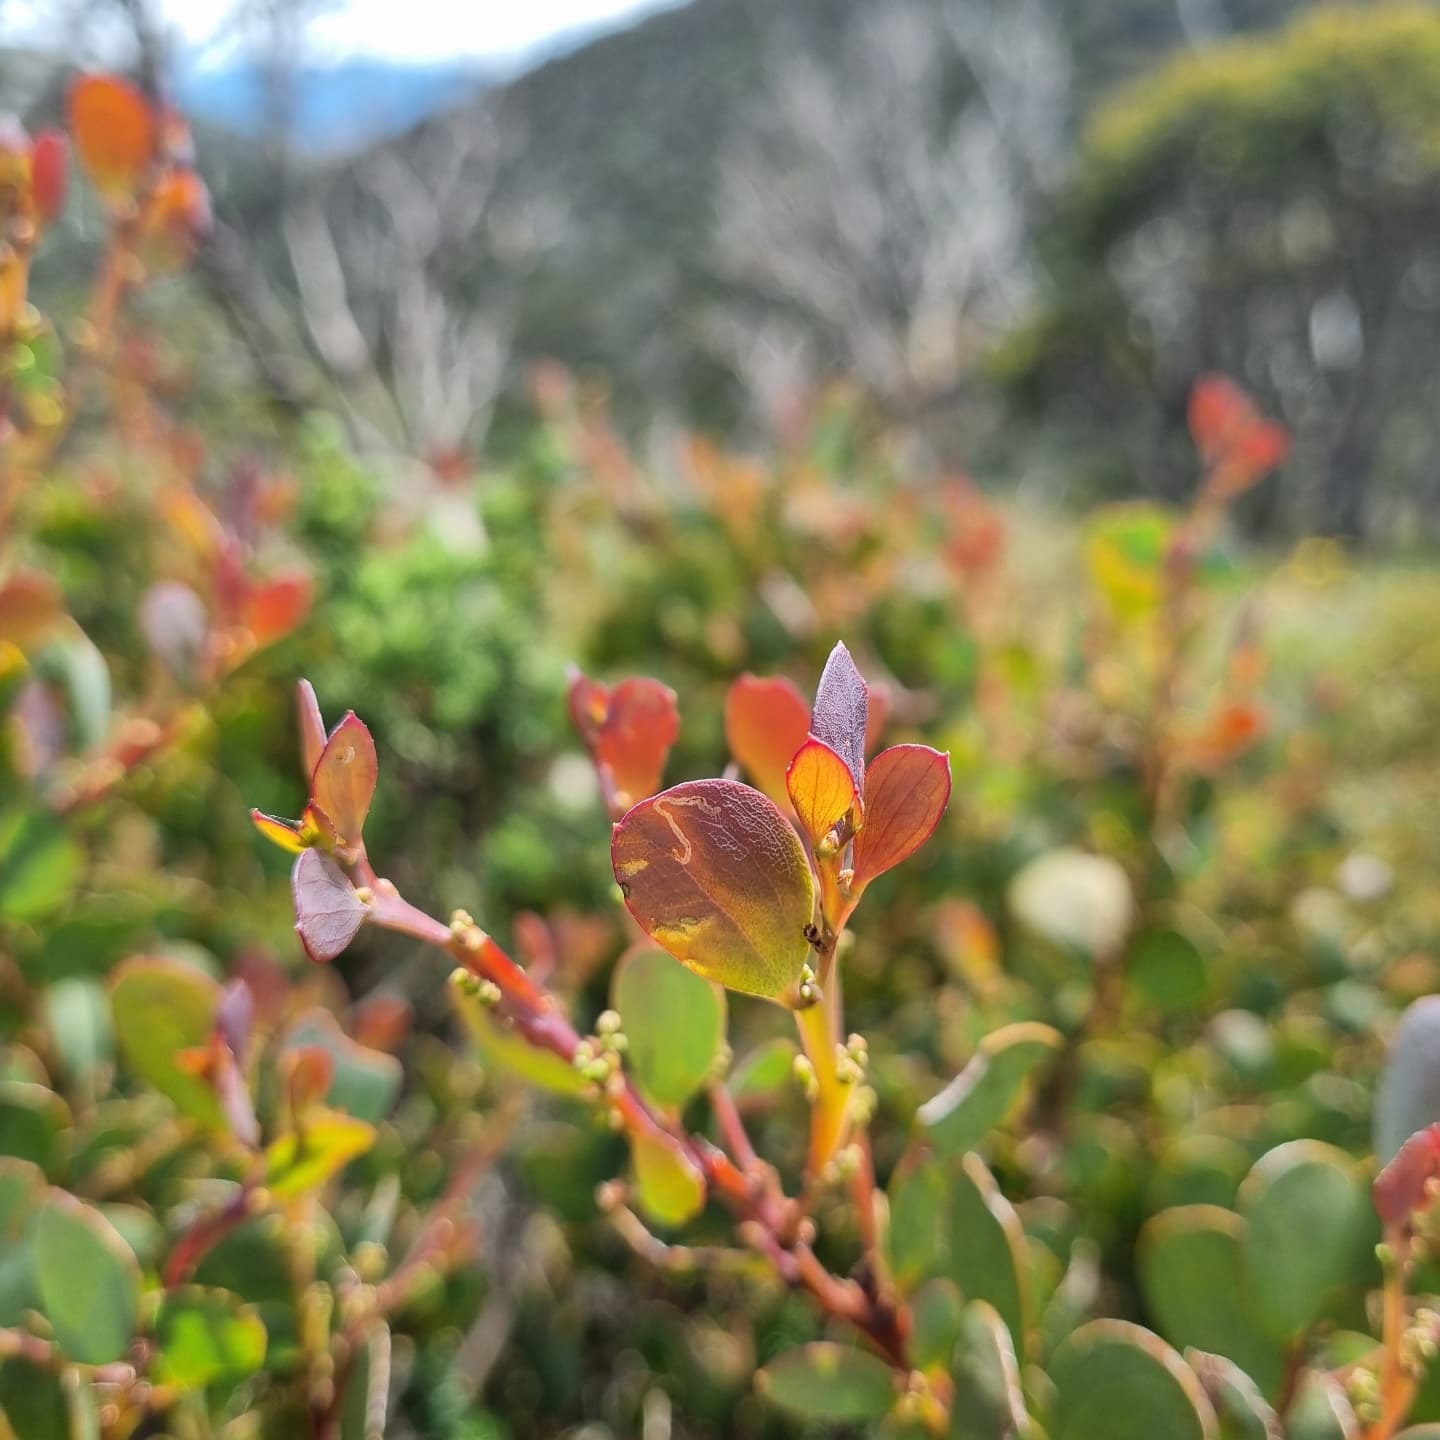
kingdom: Plantae
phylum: Tracheophyta
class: Magnoliopsida
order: Fabales
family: Fabaceae
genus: Acacia
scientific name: Acacia alpina
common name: Alpine wattle
